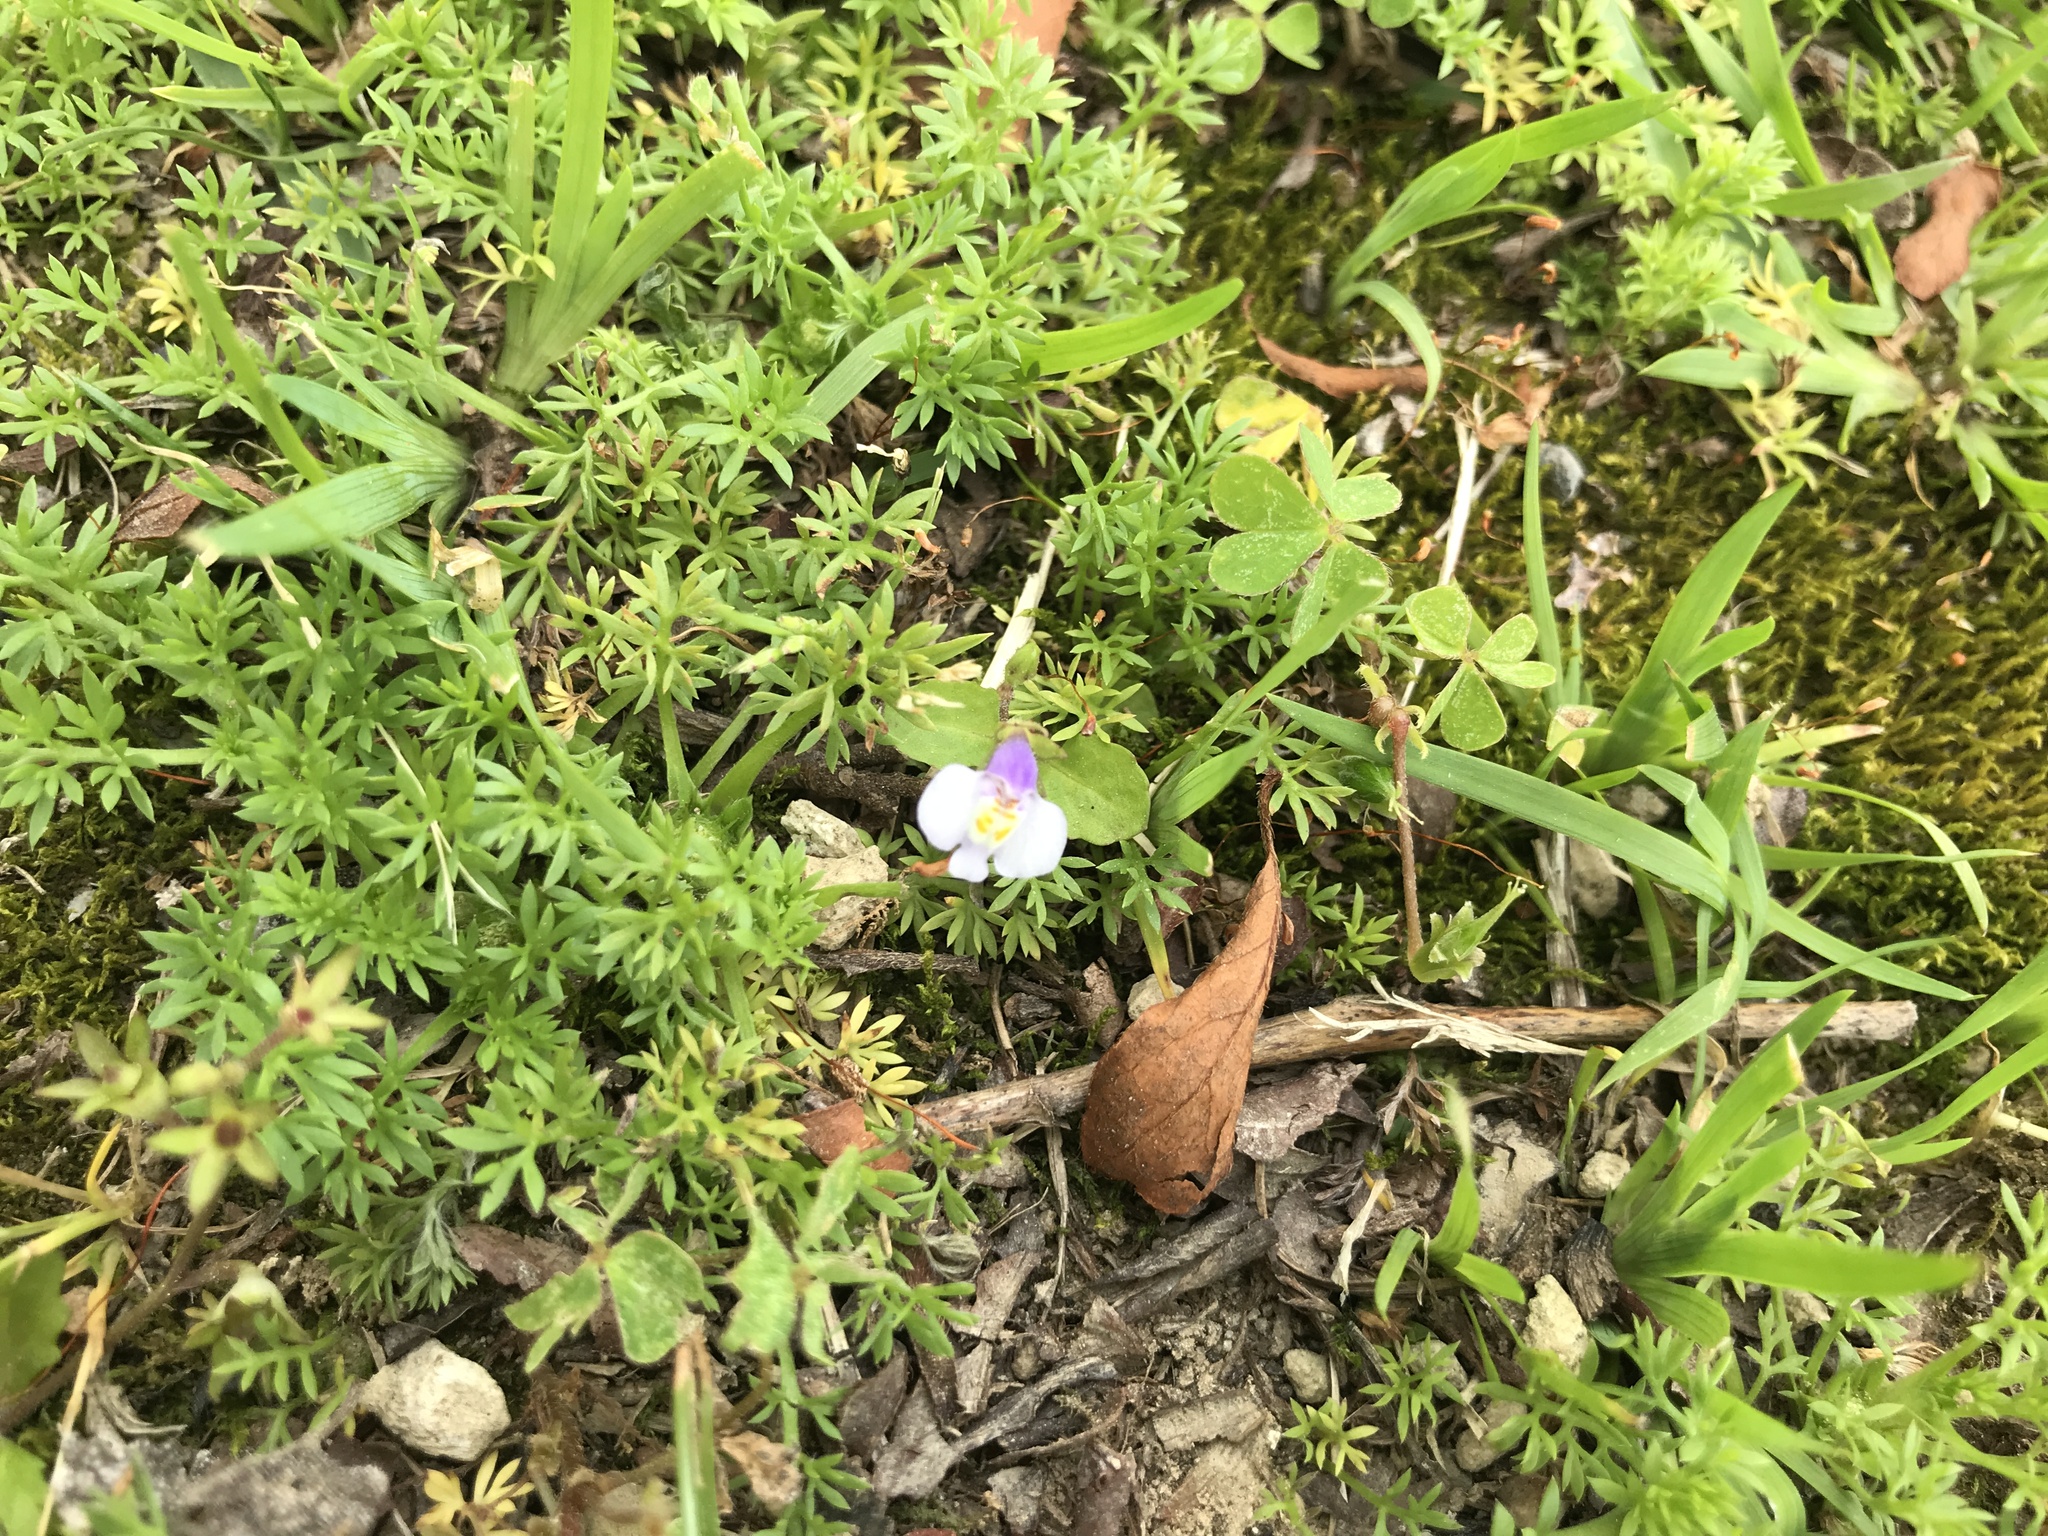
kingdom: Plantae
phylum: Tracheophyta
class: Magnoliopsida
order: Lamiales
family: Mazaceae
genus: Mazus
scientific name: Mazus pumilus
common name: Japanese mazus
